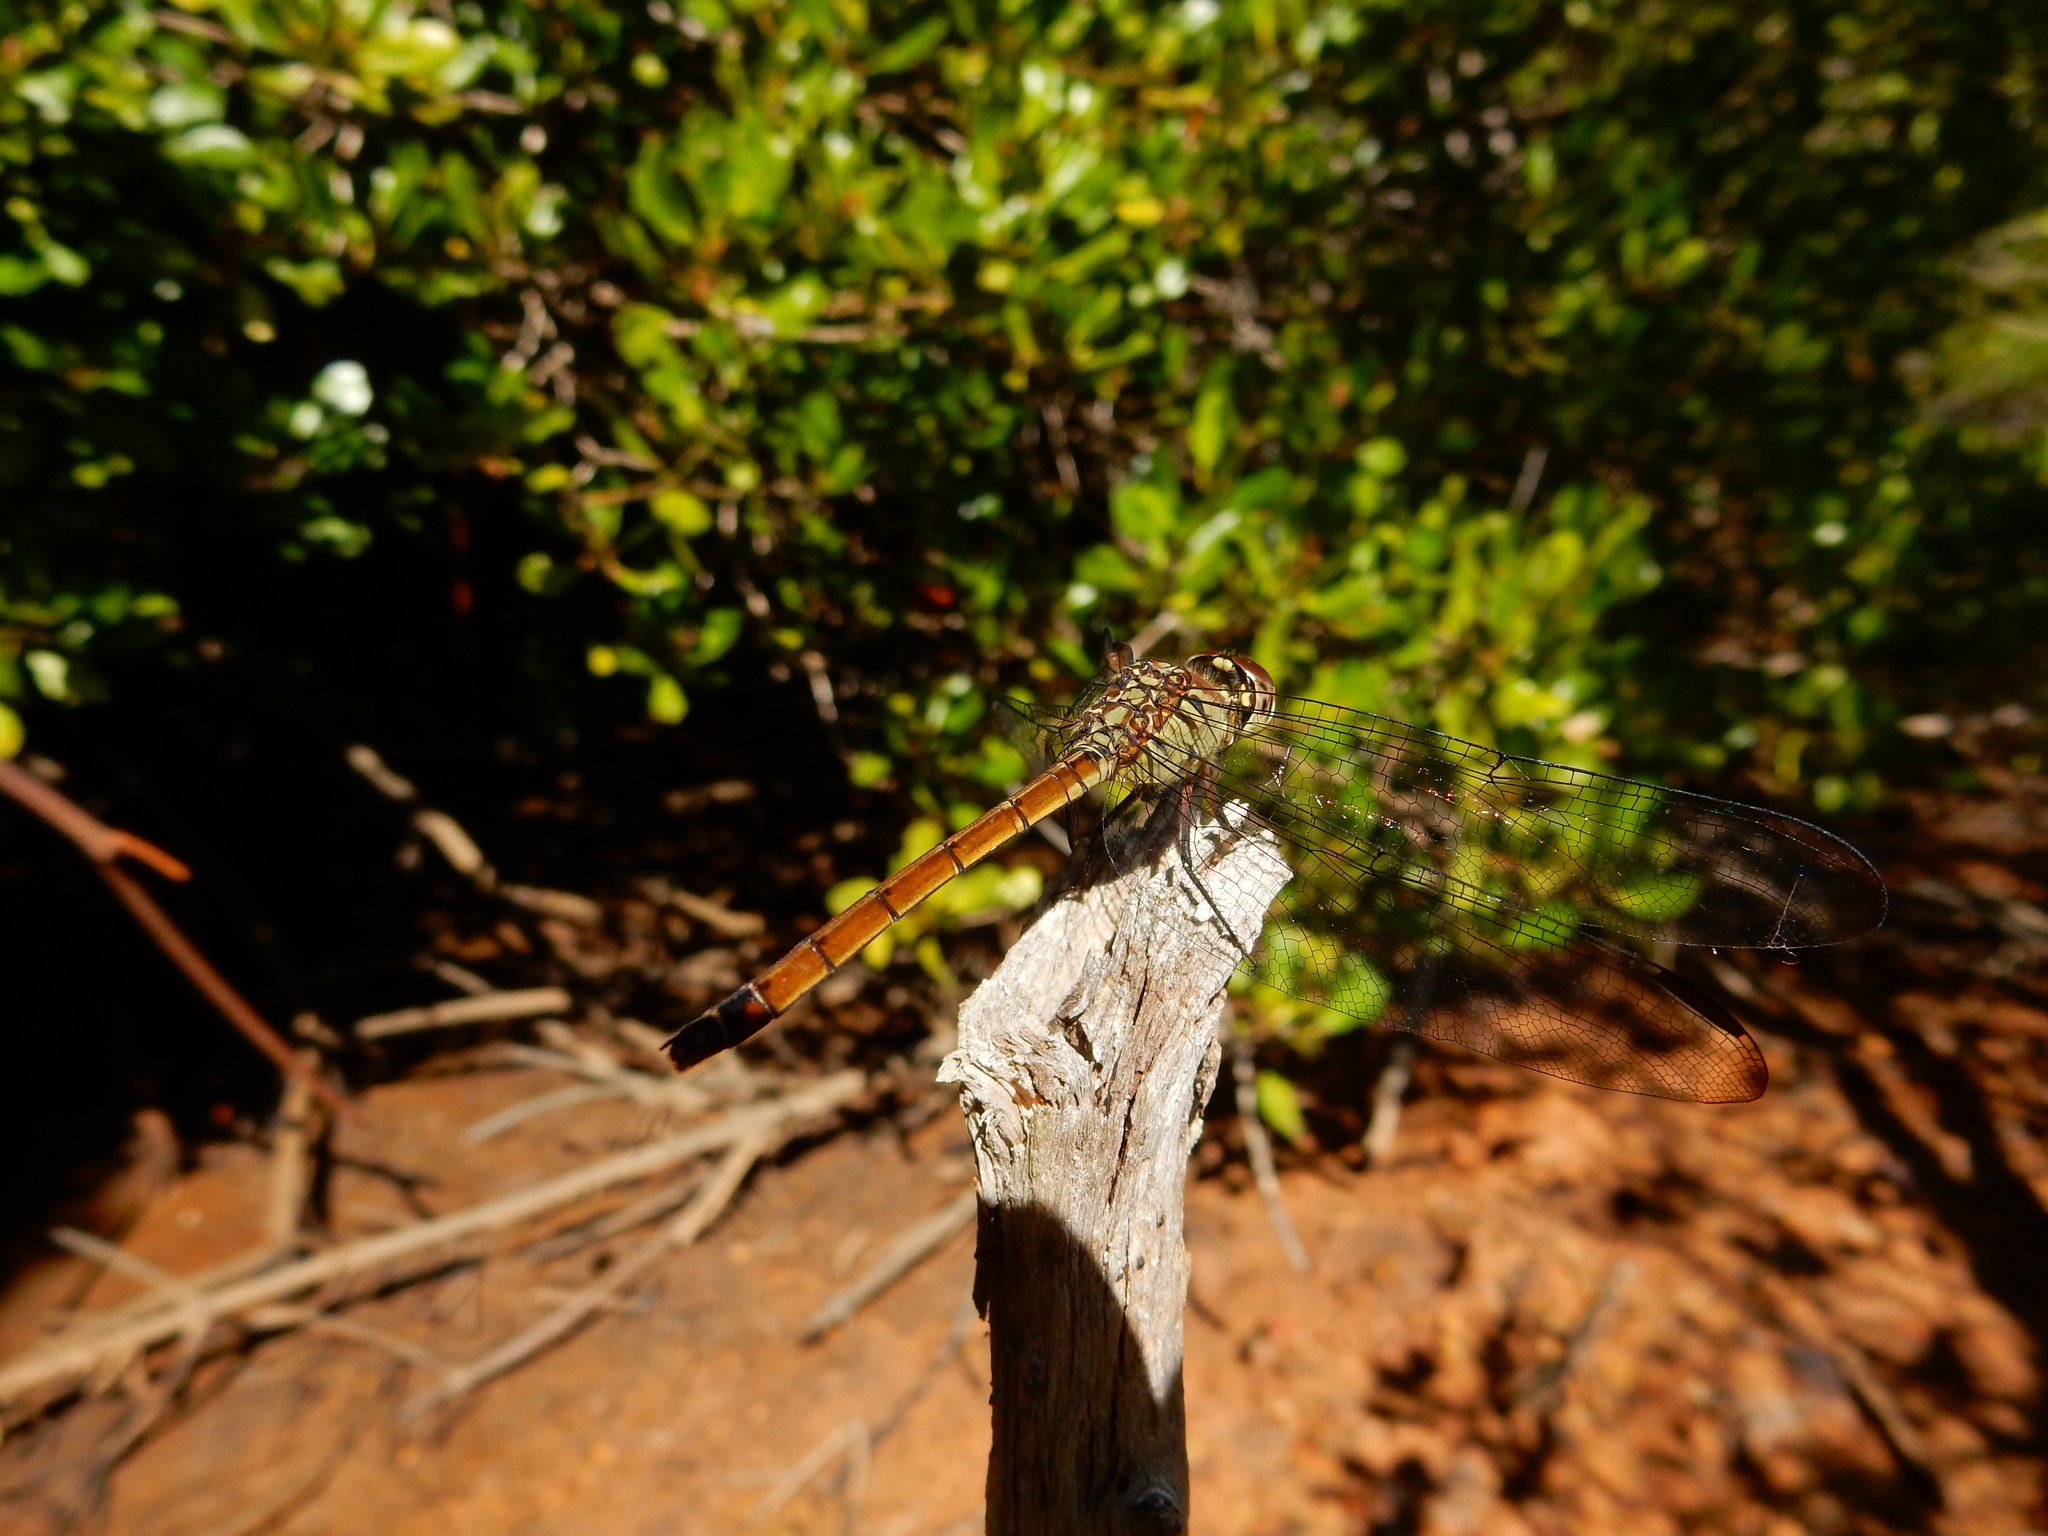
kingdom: Animalia
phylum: Arthropoda
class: Insecta
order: Odonata
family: Libellulidae
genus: Lathrecista
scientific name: Lathrecista asiatica
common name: Scarlet grenadier
